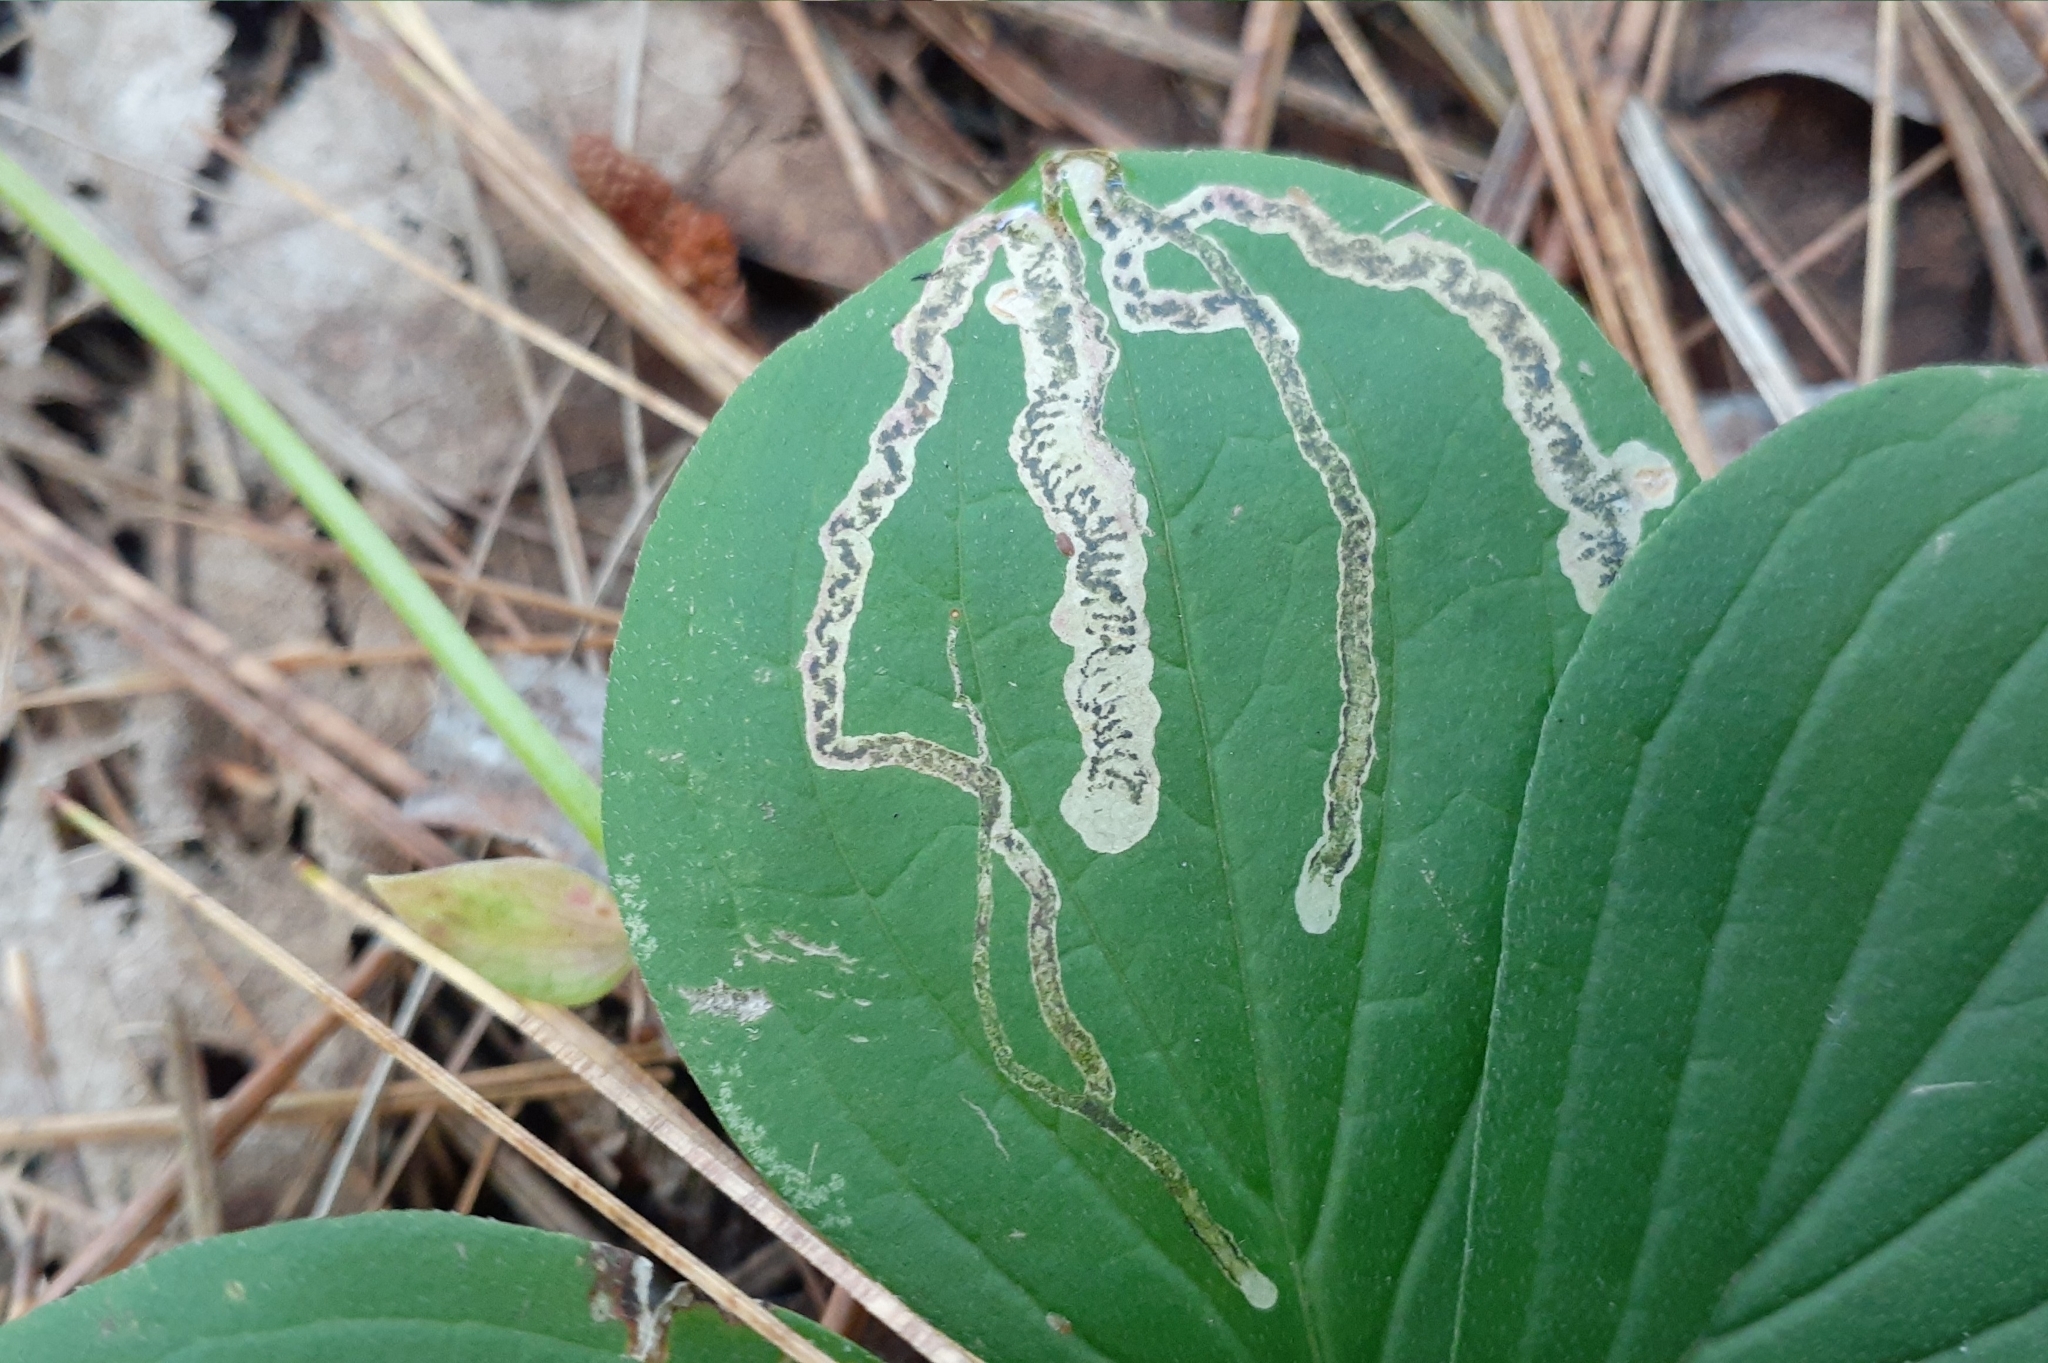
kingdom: Animalia
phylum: Arthropoda
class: Insecta
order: Diptera
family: Agromyzidae
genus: Phytomyza
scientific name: Phytomyza agromyzina
